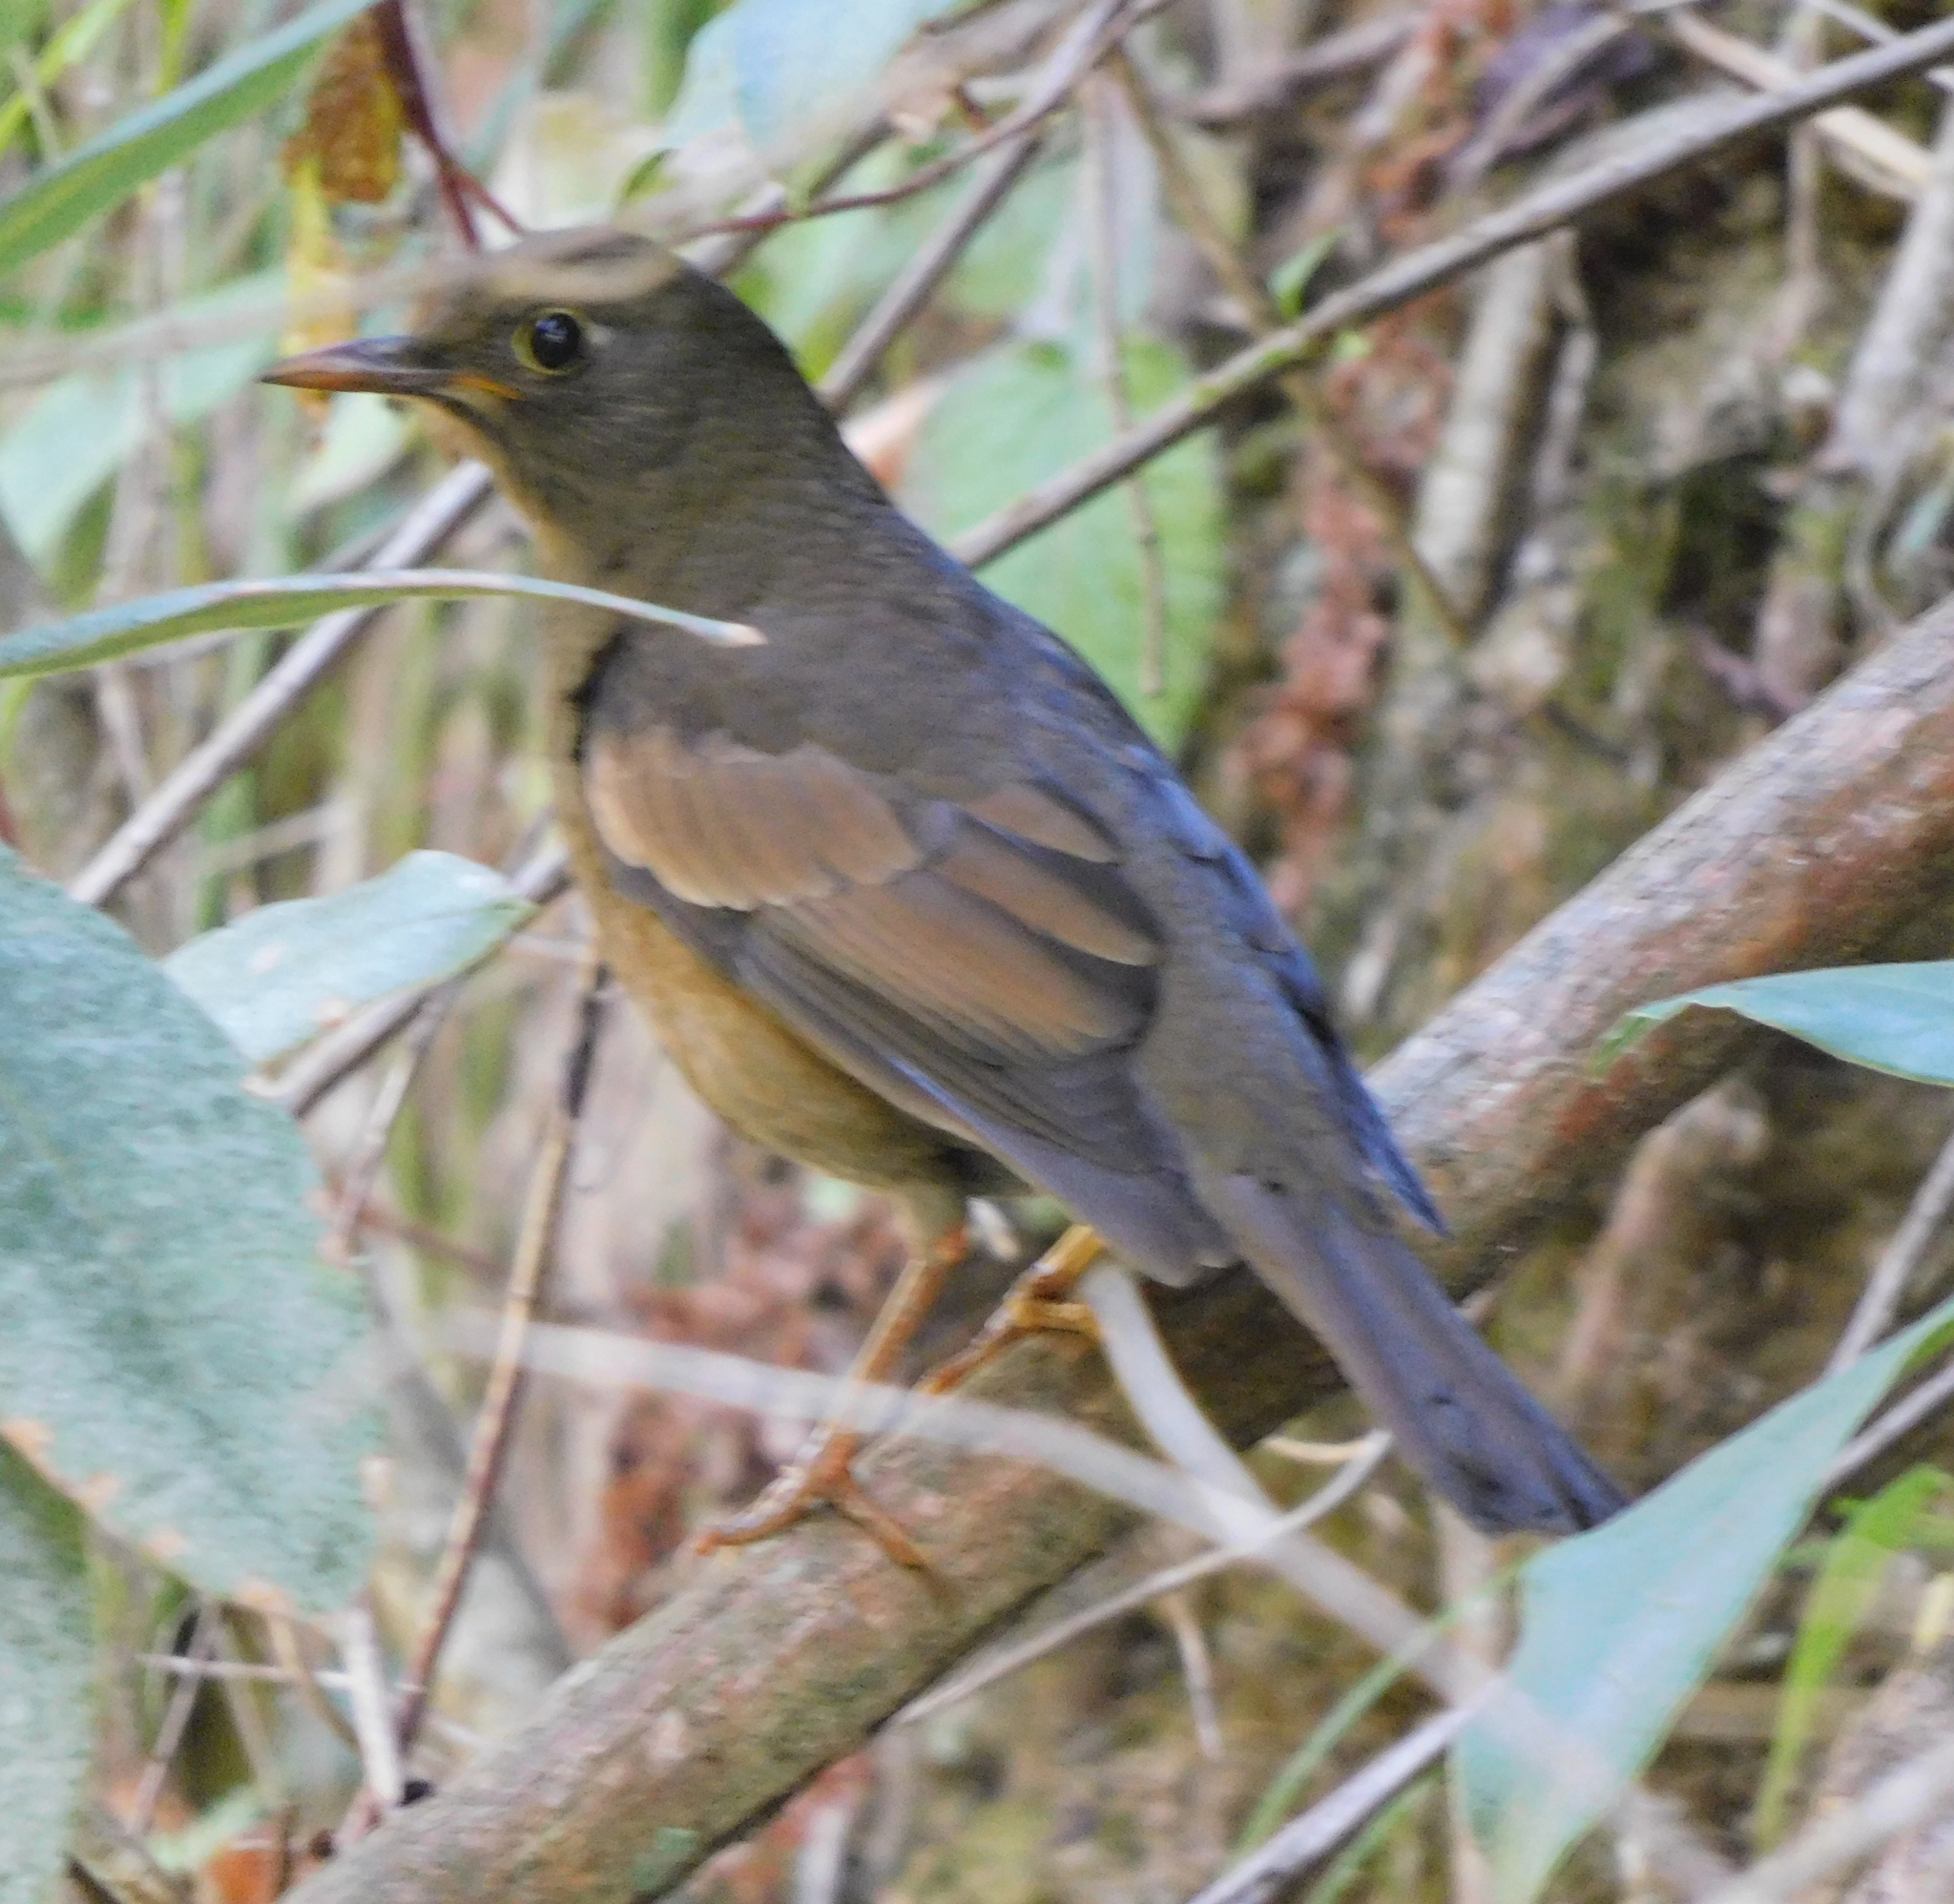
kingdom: Animalia
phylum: Chordata
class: Aves
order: Passeriformes
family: Turdidae
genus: Turdus
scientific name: Turdus boulboul
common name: Grey-winged blackbird
